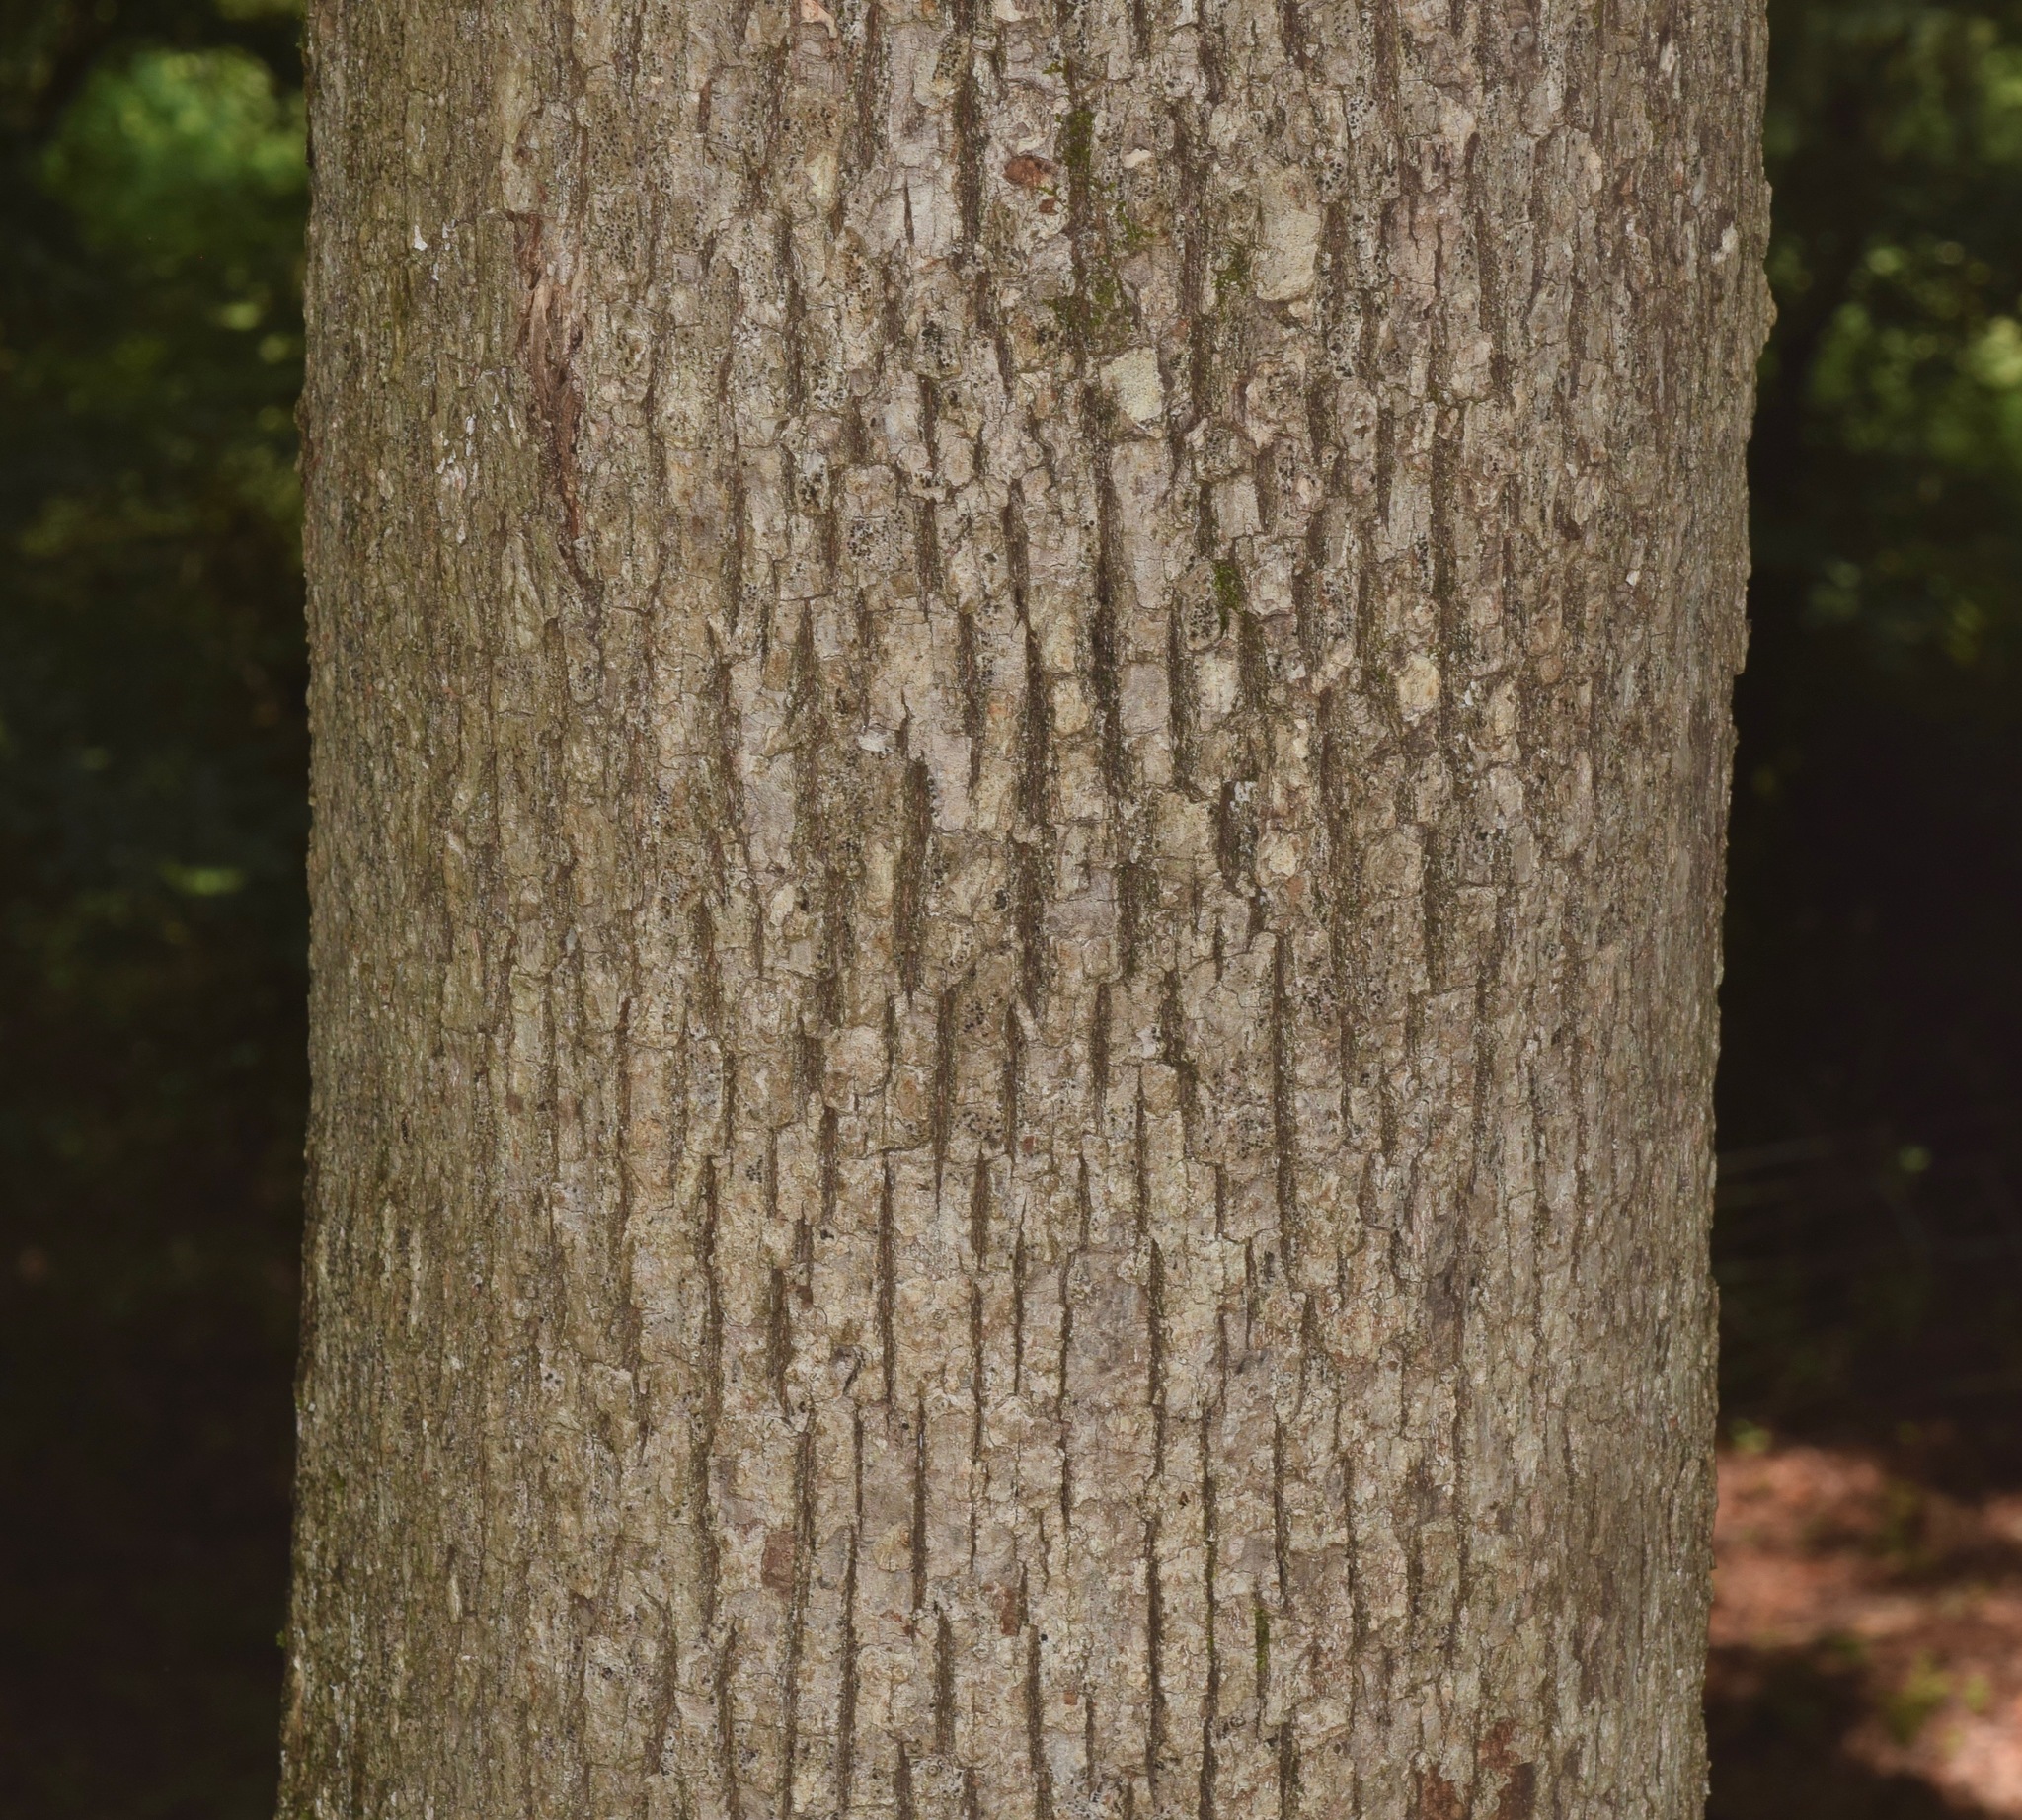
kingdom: Plantae
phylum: Tracheophyta
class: Magnoliopsida
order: Fagales
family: Fagaceae
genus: Quercus
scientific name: Quercus alba
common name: White oak
